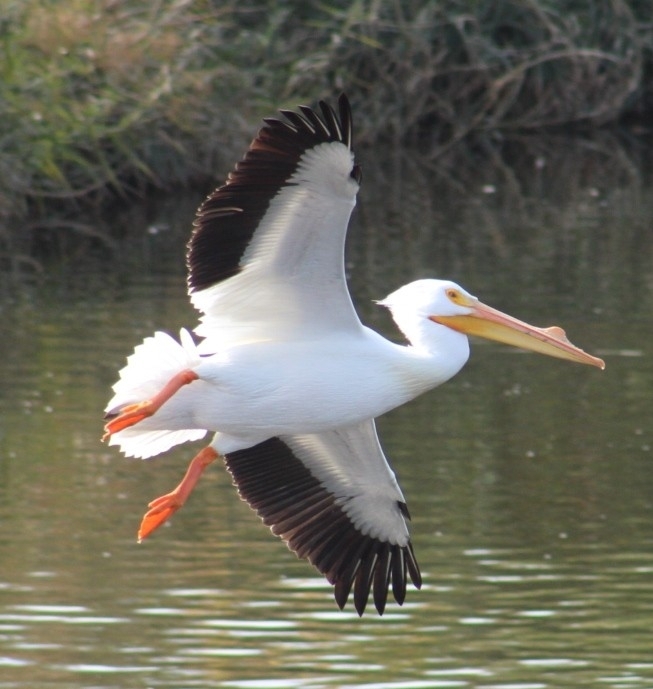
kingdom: Animalia
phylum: Chordata
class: Aves
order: Pelecaniformes
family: Pelecanidae
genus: Pelecanus
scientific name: Pelecanus erythrorhynchos
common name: American white pelican
